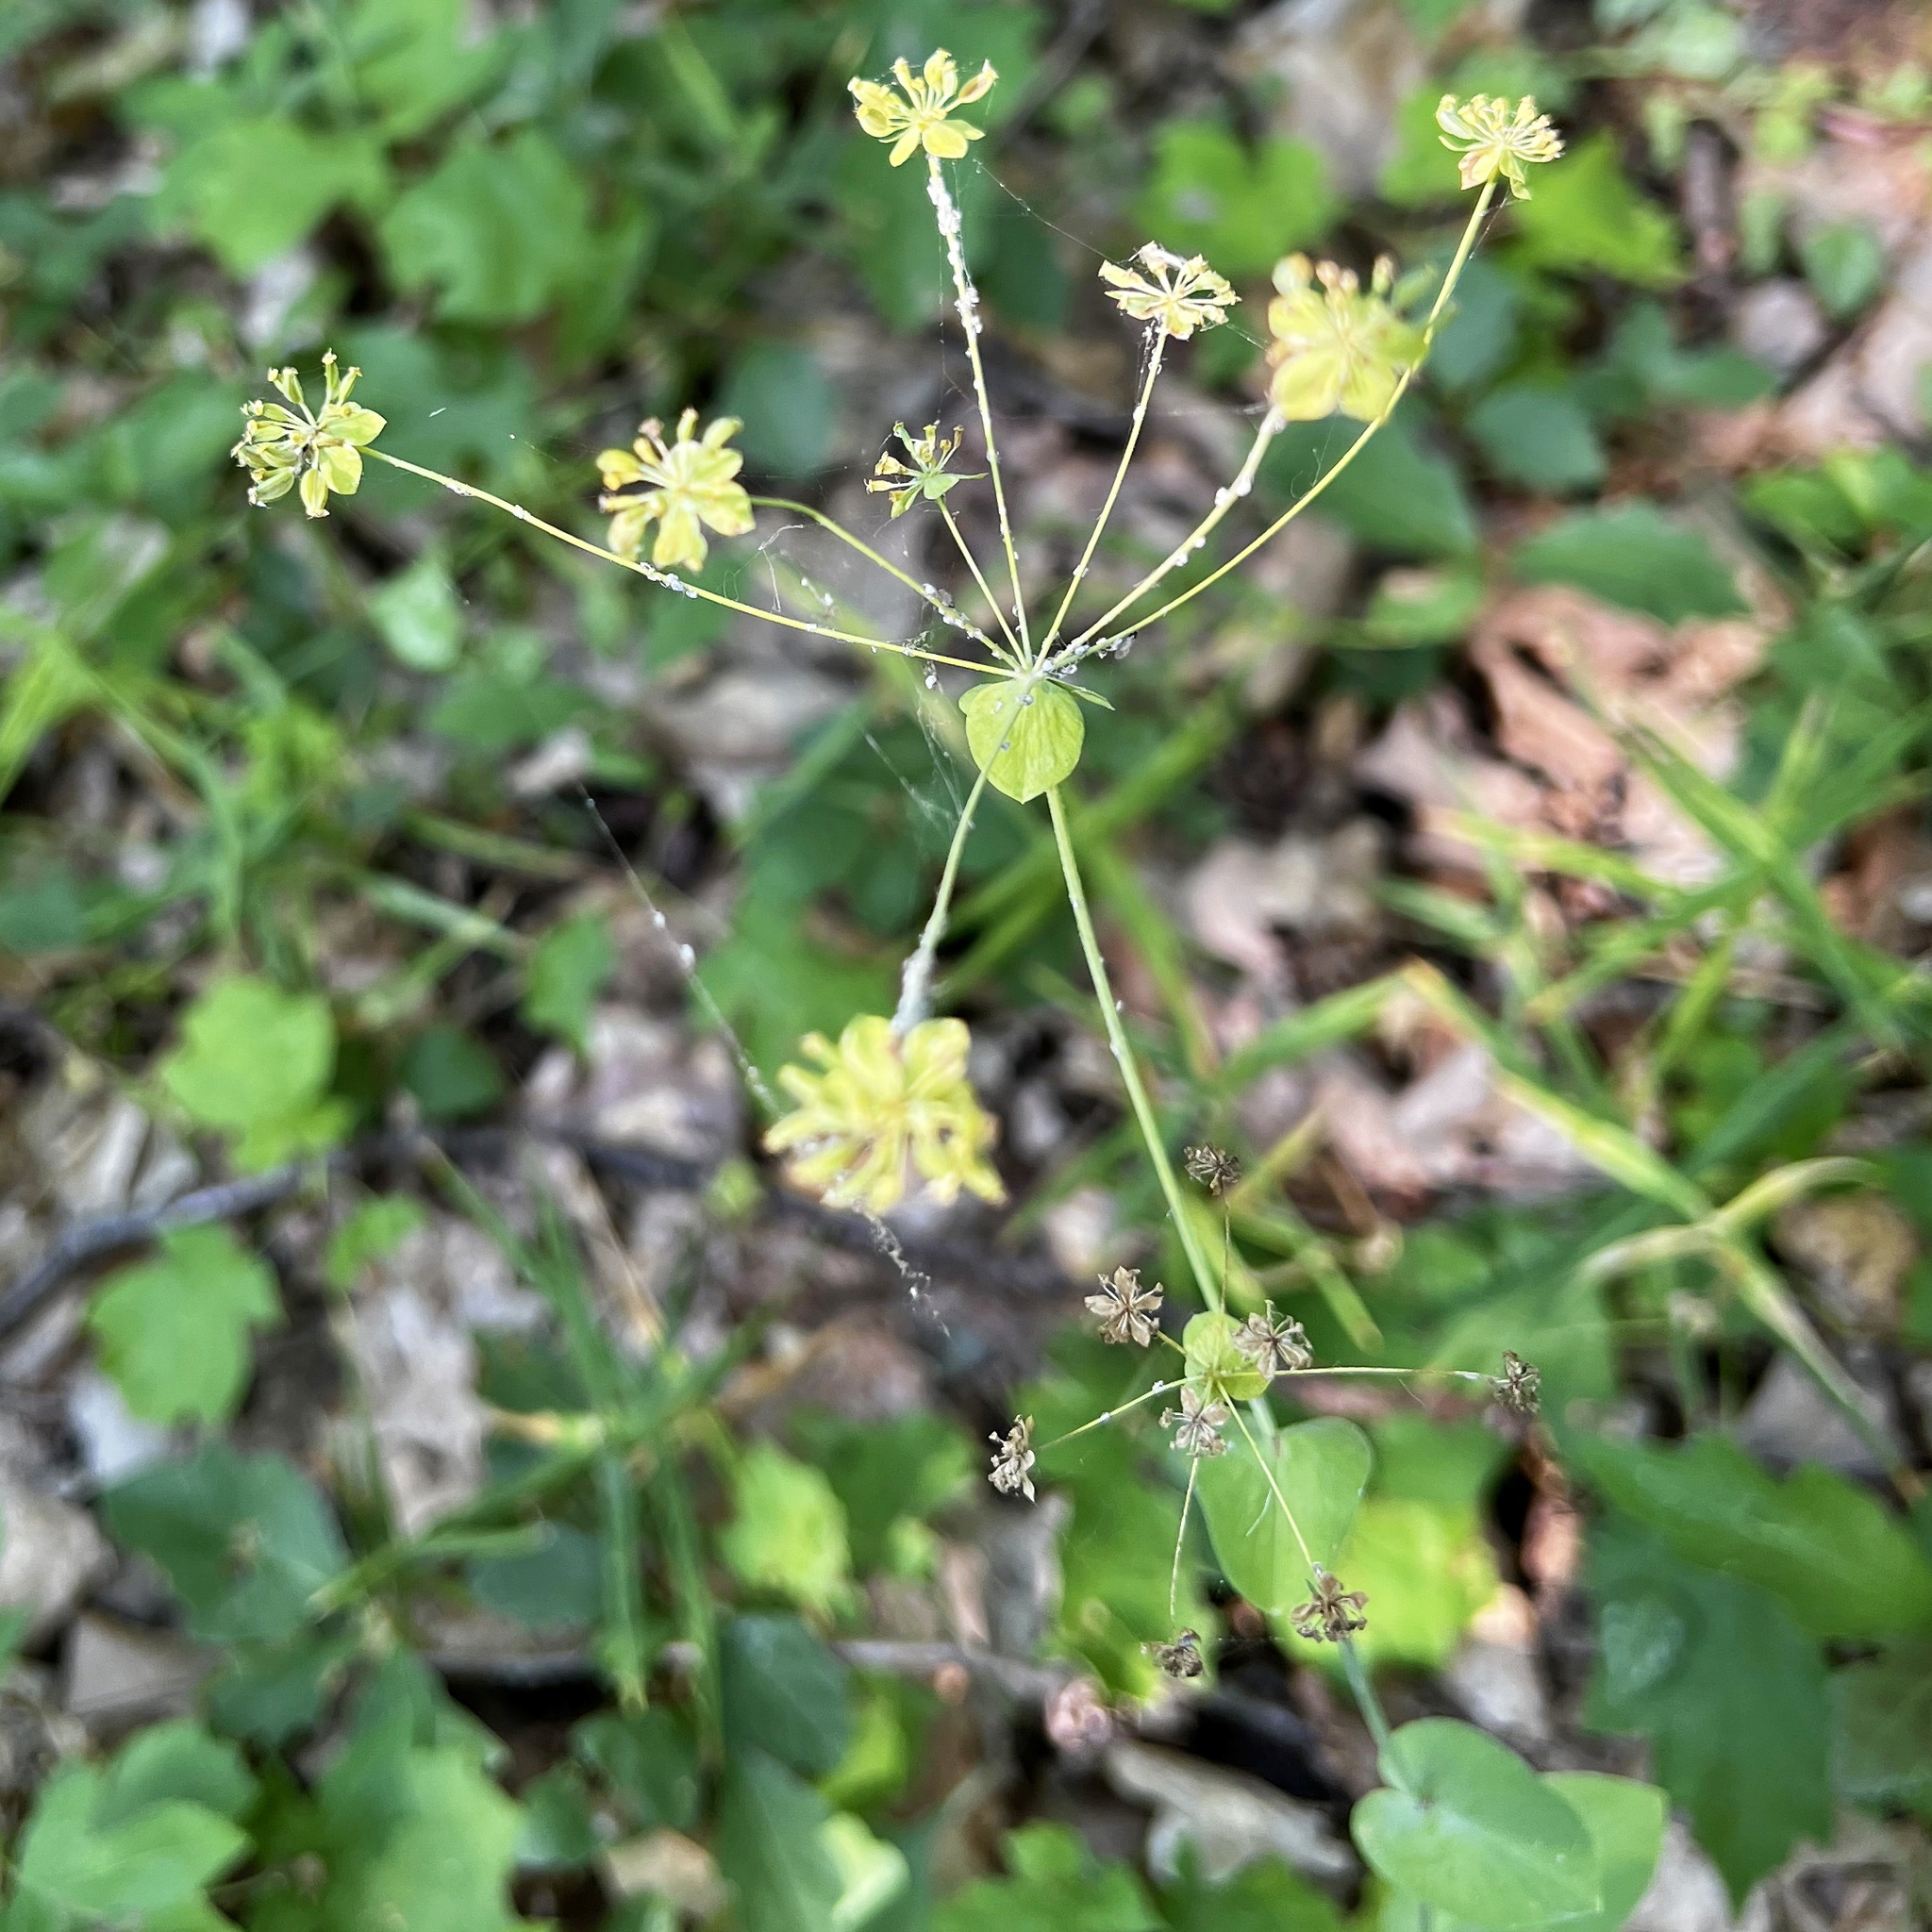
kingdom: Plantae
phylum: Tracheophyta
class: Magnoliopsida
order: Apiales
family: Apiaceae
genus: Bupleurum
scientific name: Bupleurum longifolium
